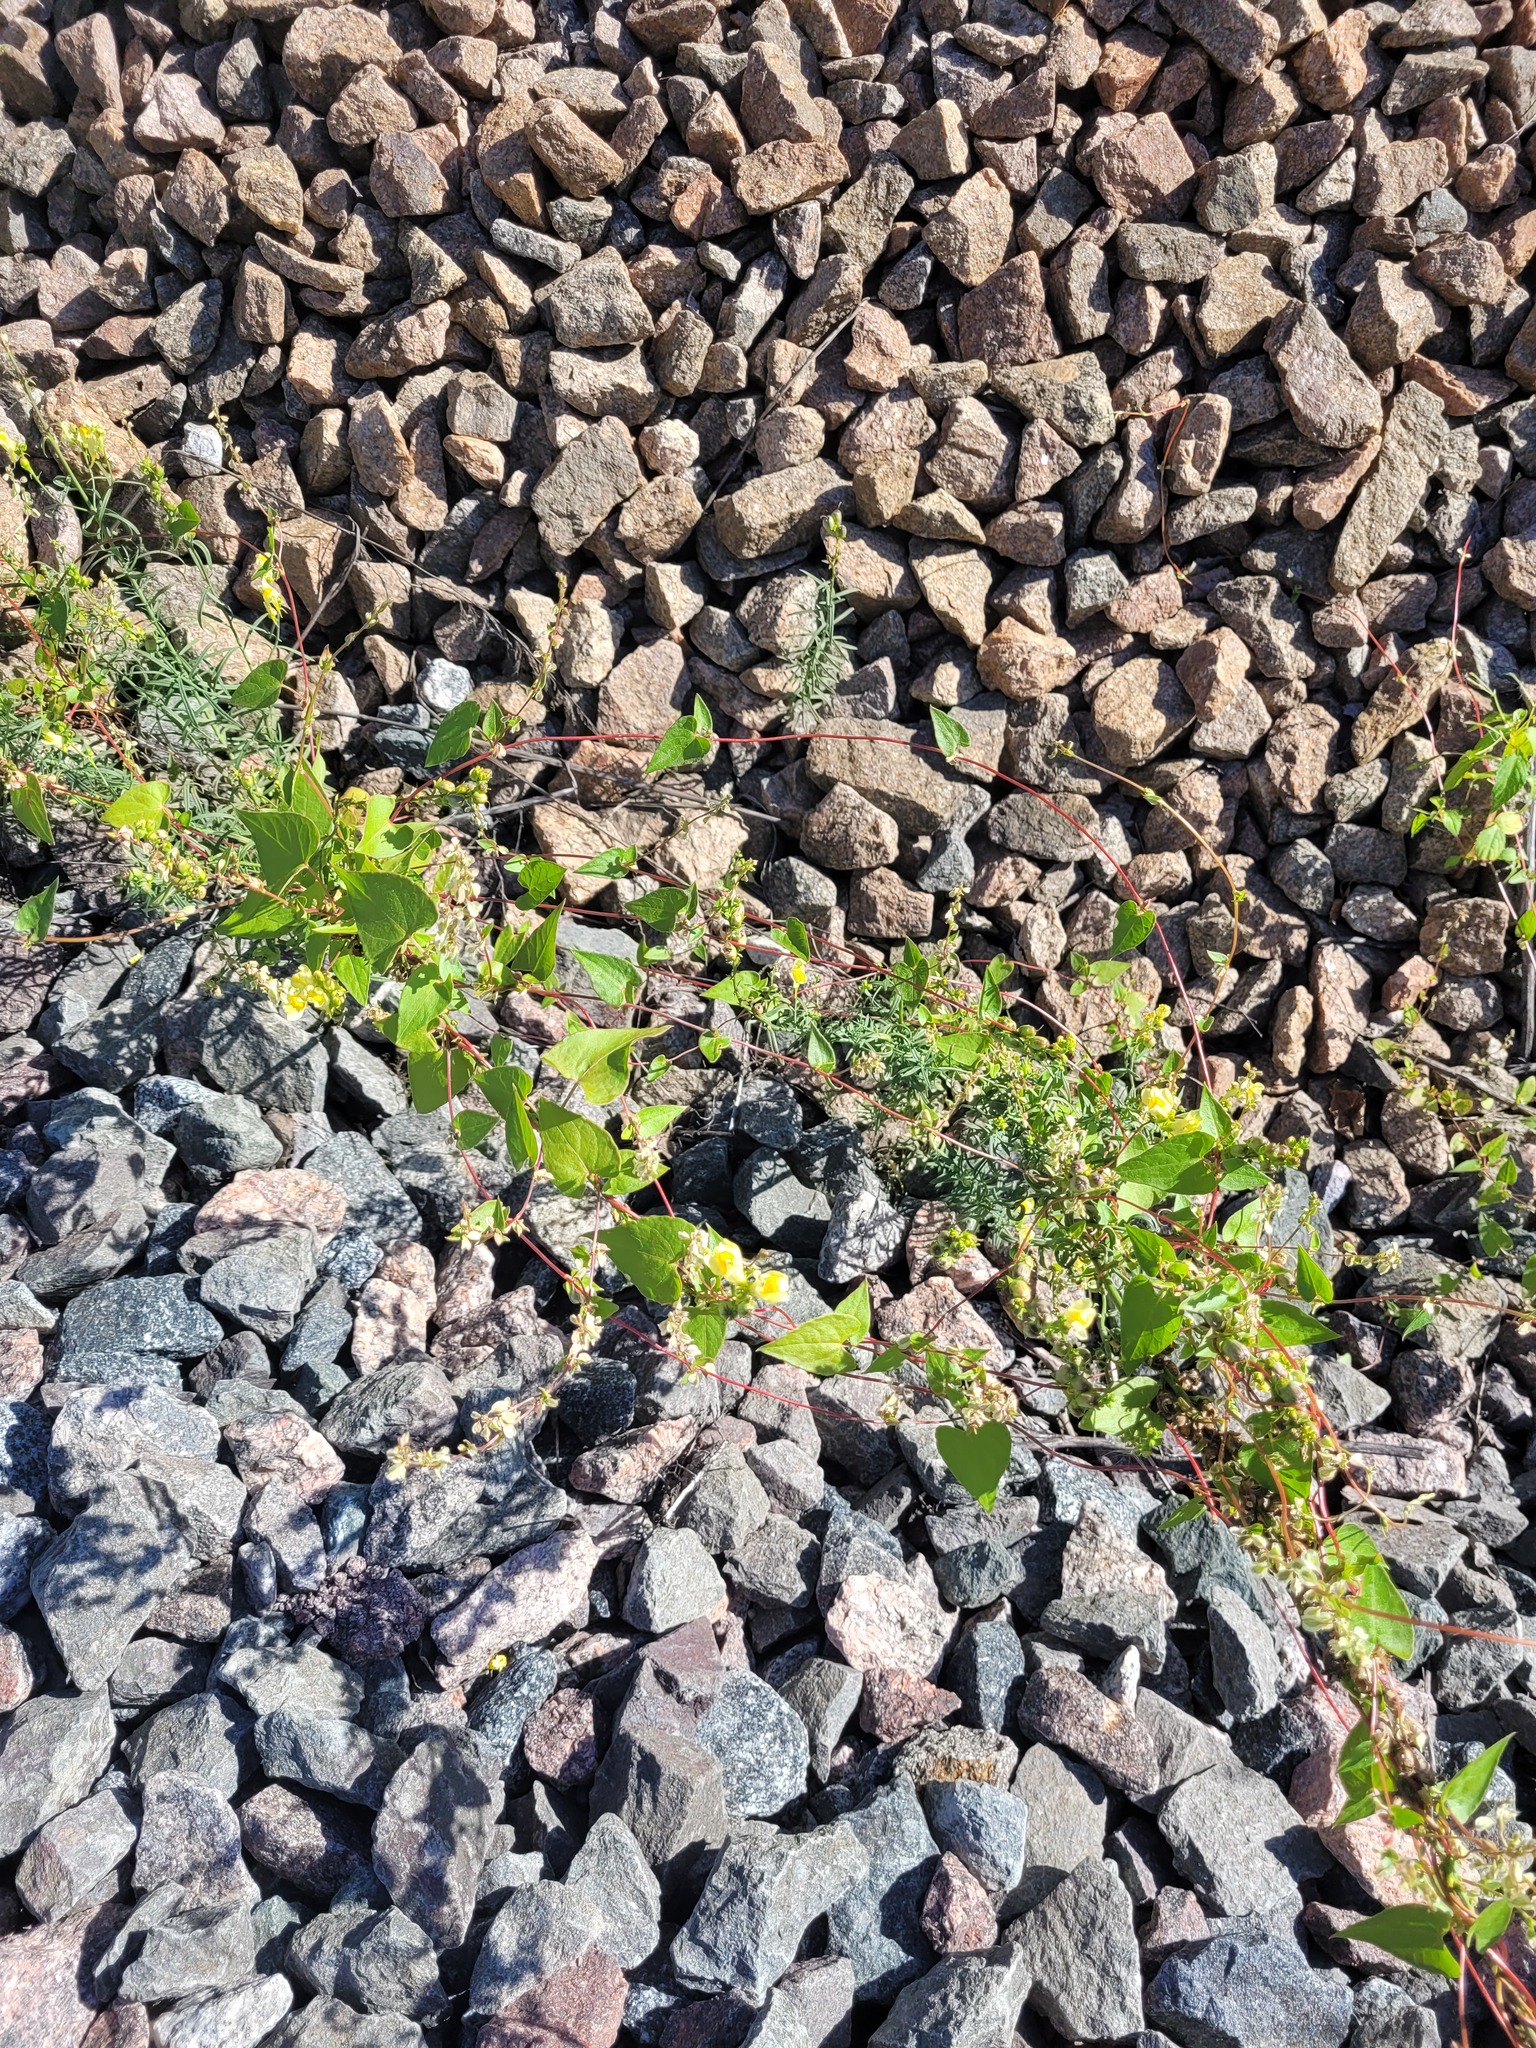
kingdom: Plantae
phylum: Tracheophyta
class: Magnoliopsida
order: Caryophyllales
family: Polygonaceae
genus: Fallopia
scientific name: Fallopia dumetorum
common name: Copse-bindweed
